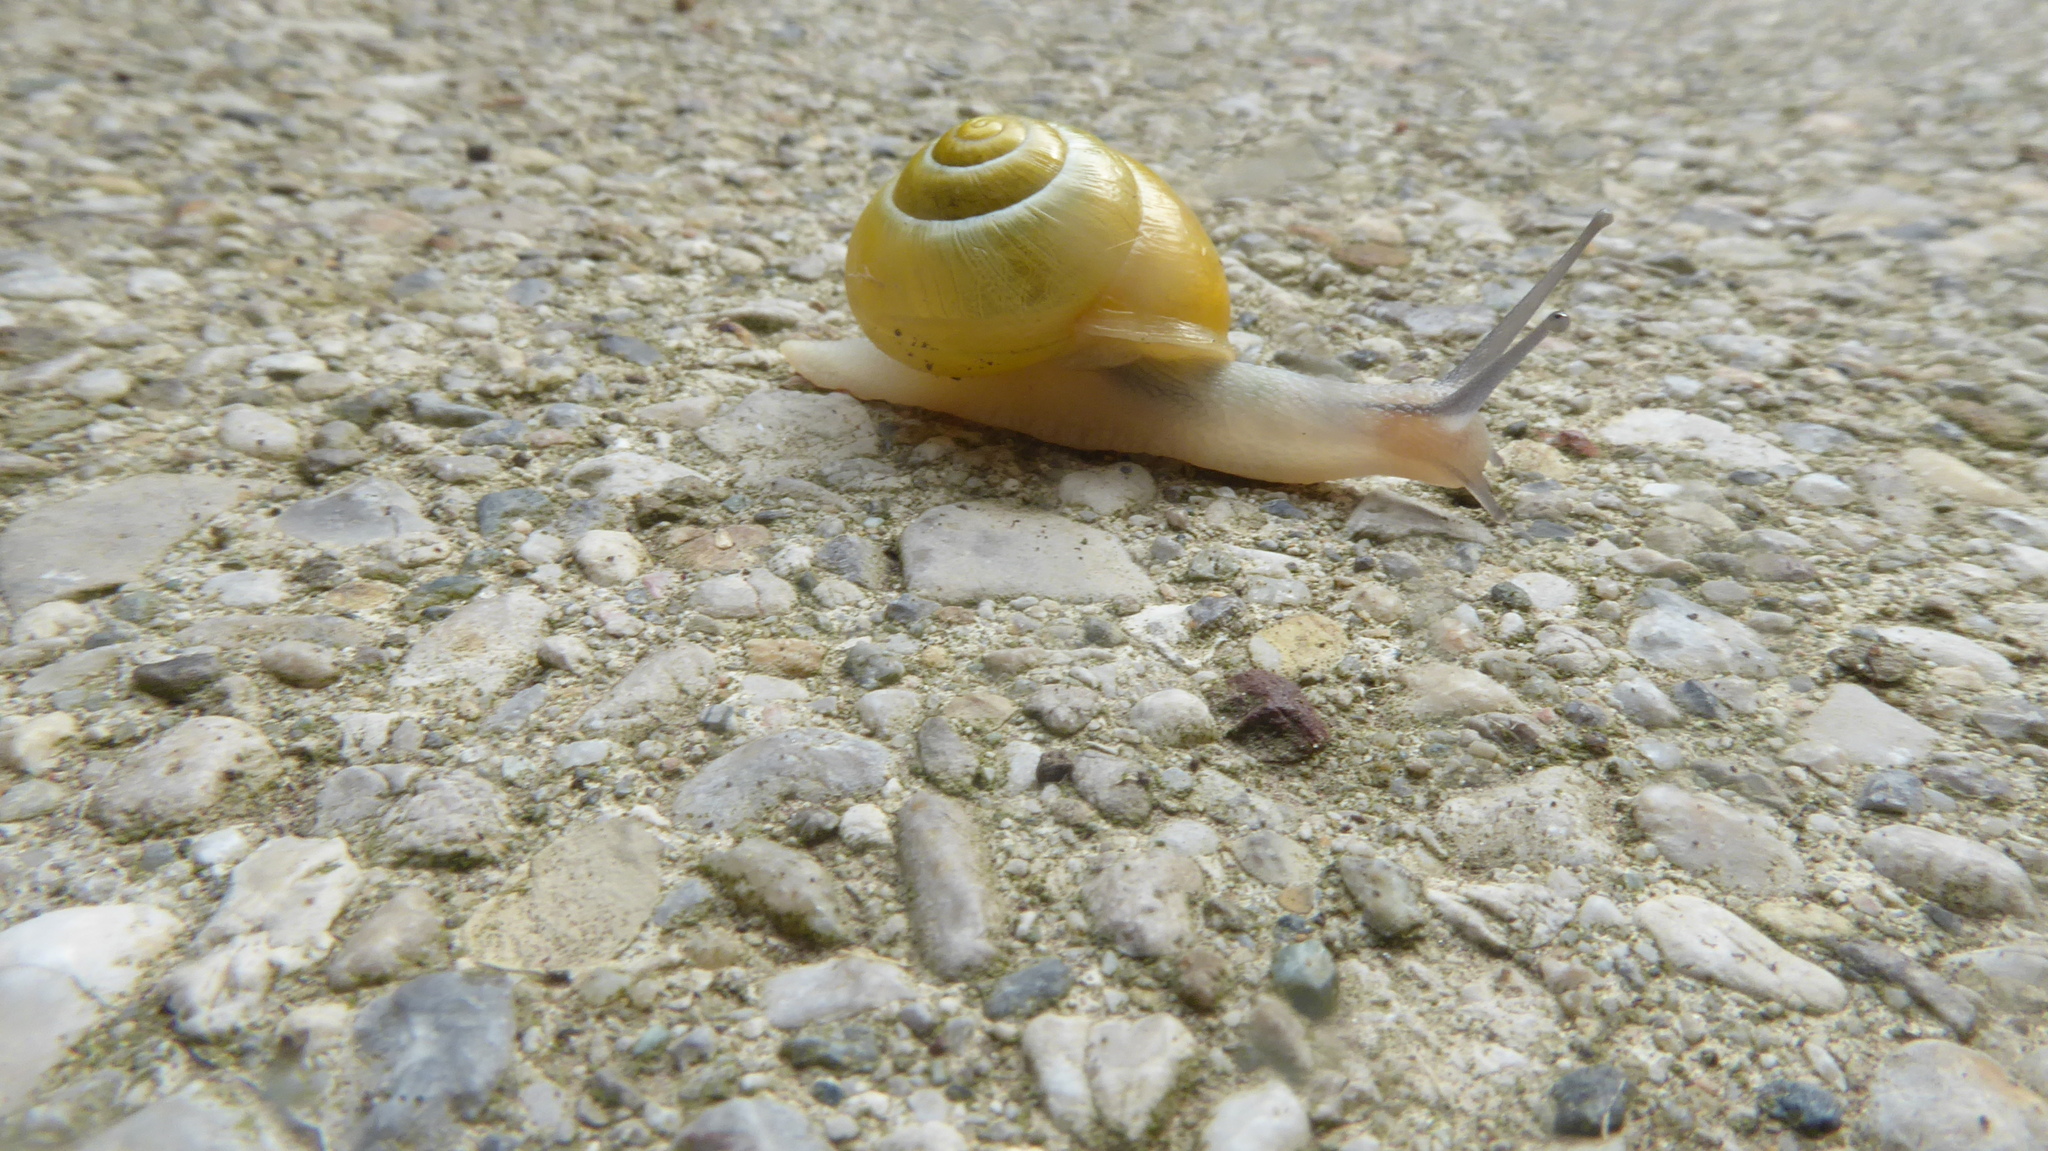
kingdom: Animalia
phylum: Mollusca
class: Gastropoda
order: Stylommatophora
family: Helicidae
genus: Cepaea
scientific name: Cepaea hortensis
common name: White-lip gardensnail
